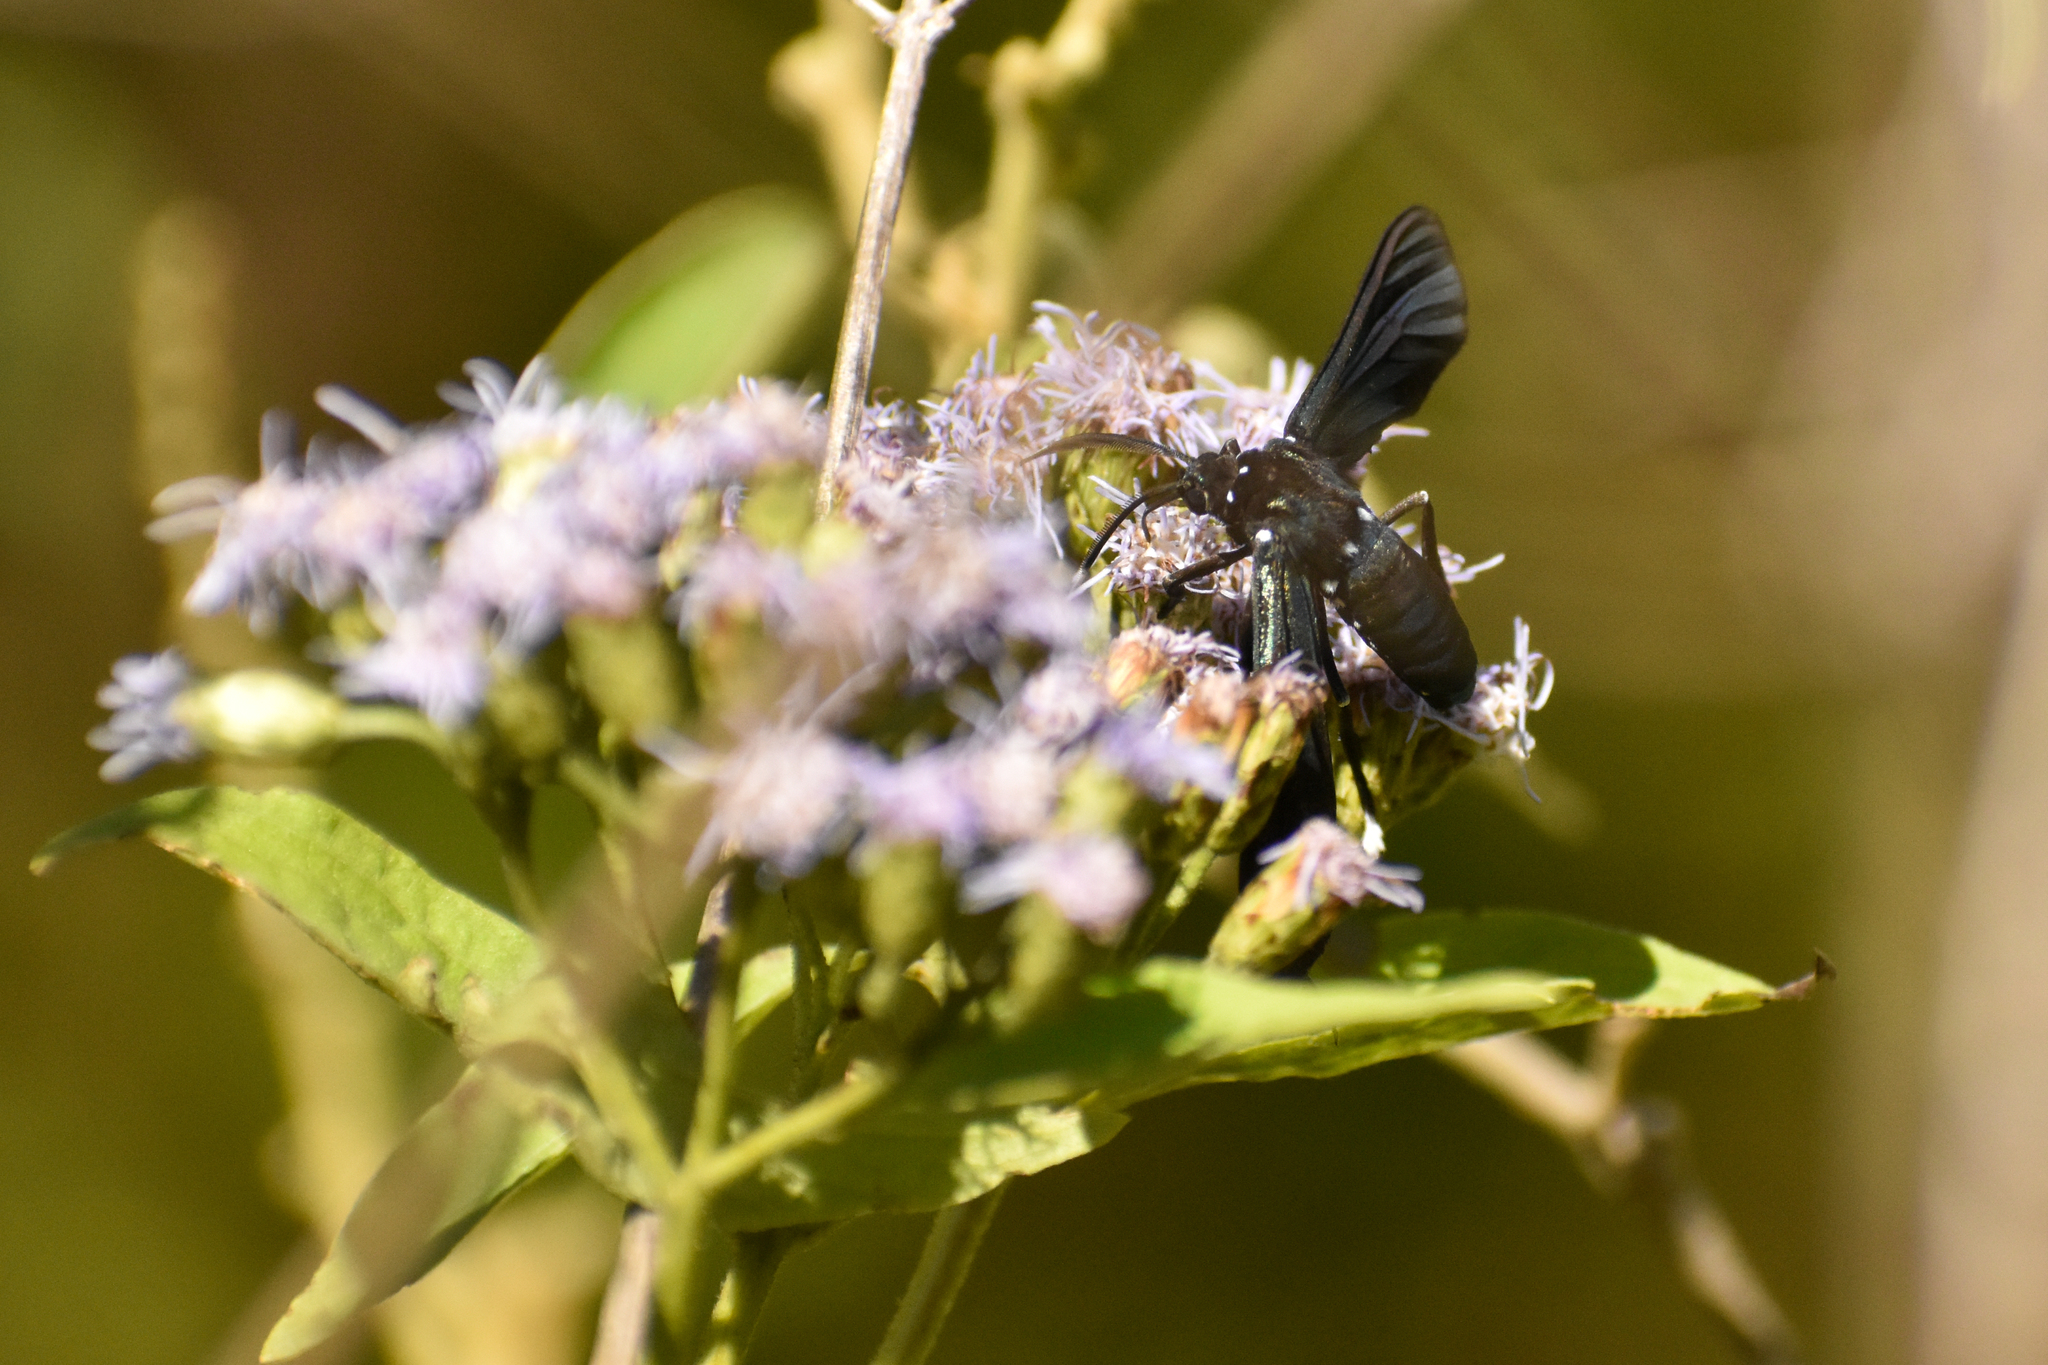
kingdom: Animalia
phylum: Arthropoda
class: Insecta
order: Lepidoptera
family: Erebidae
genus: Macrocneme
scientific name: Macrocneme leucostigma
